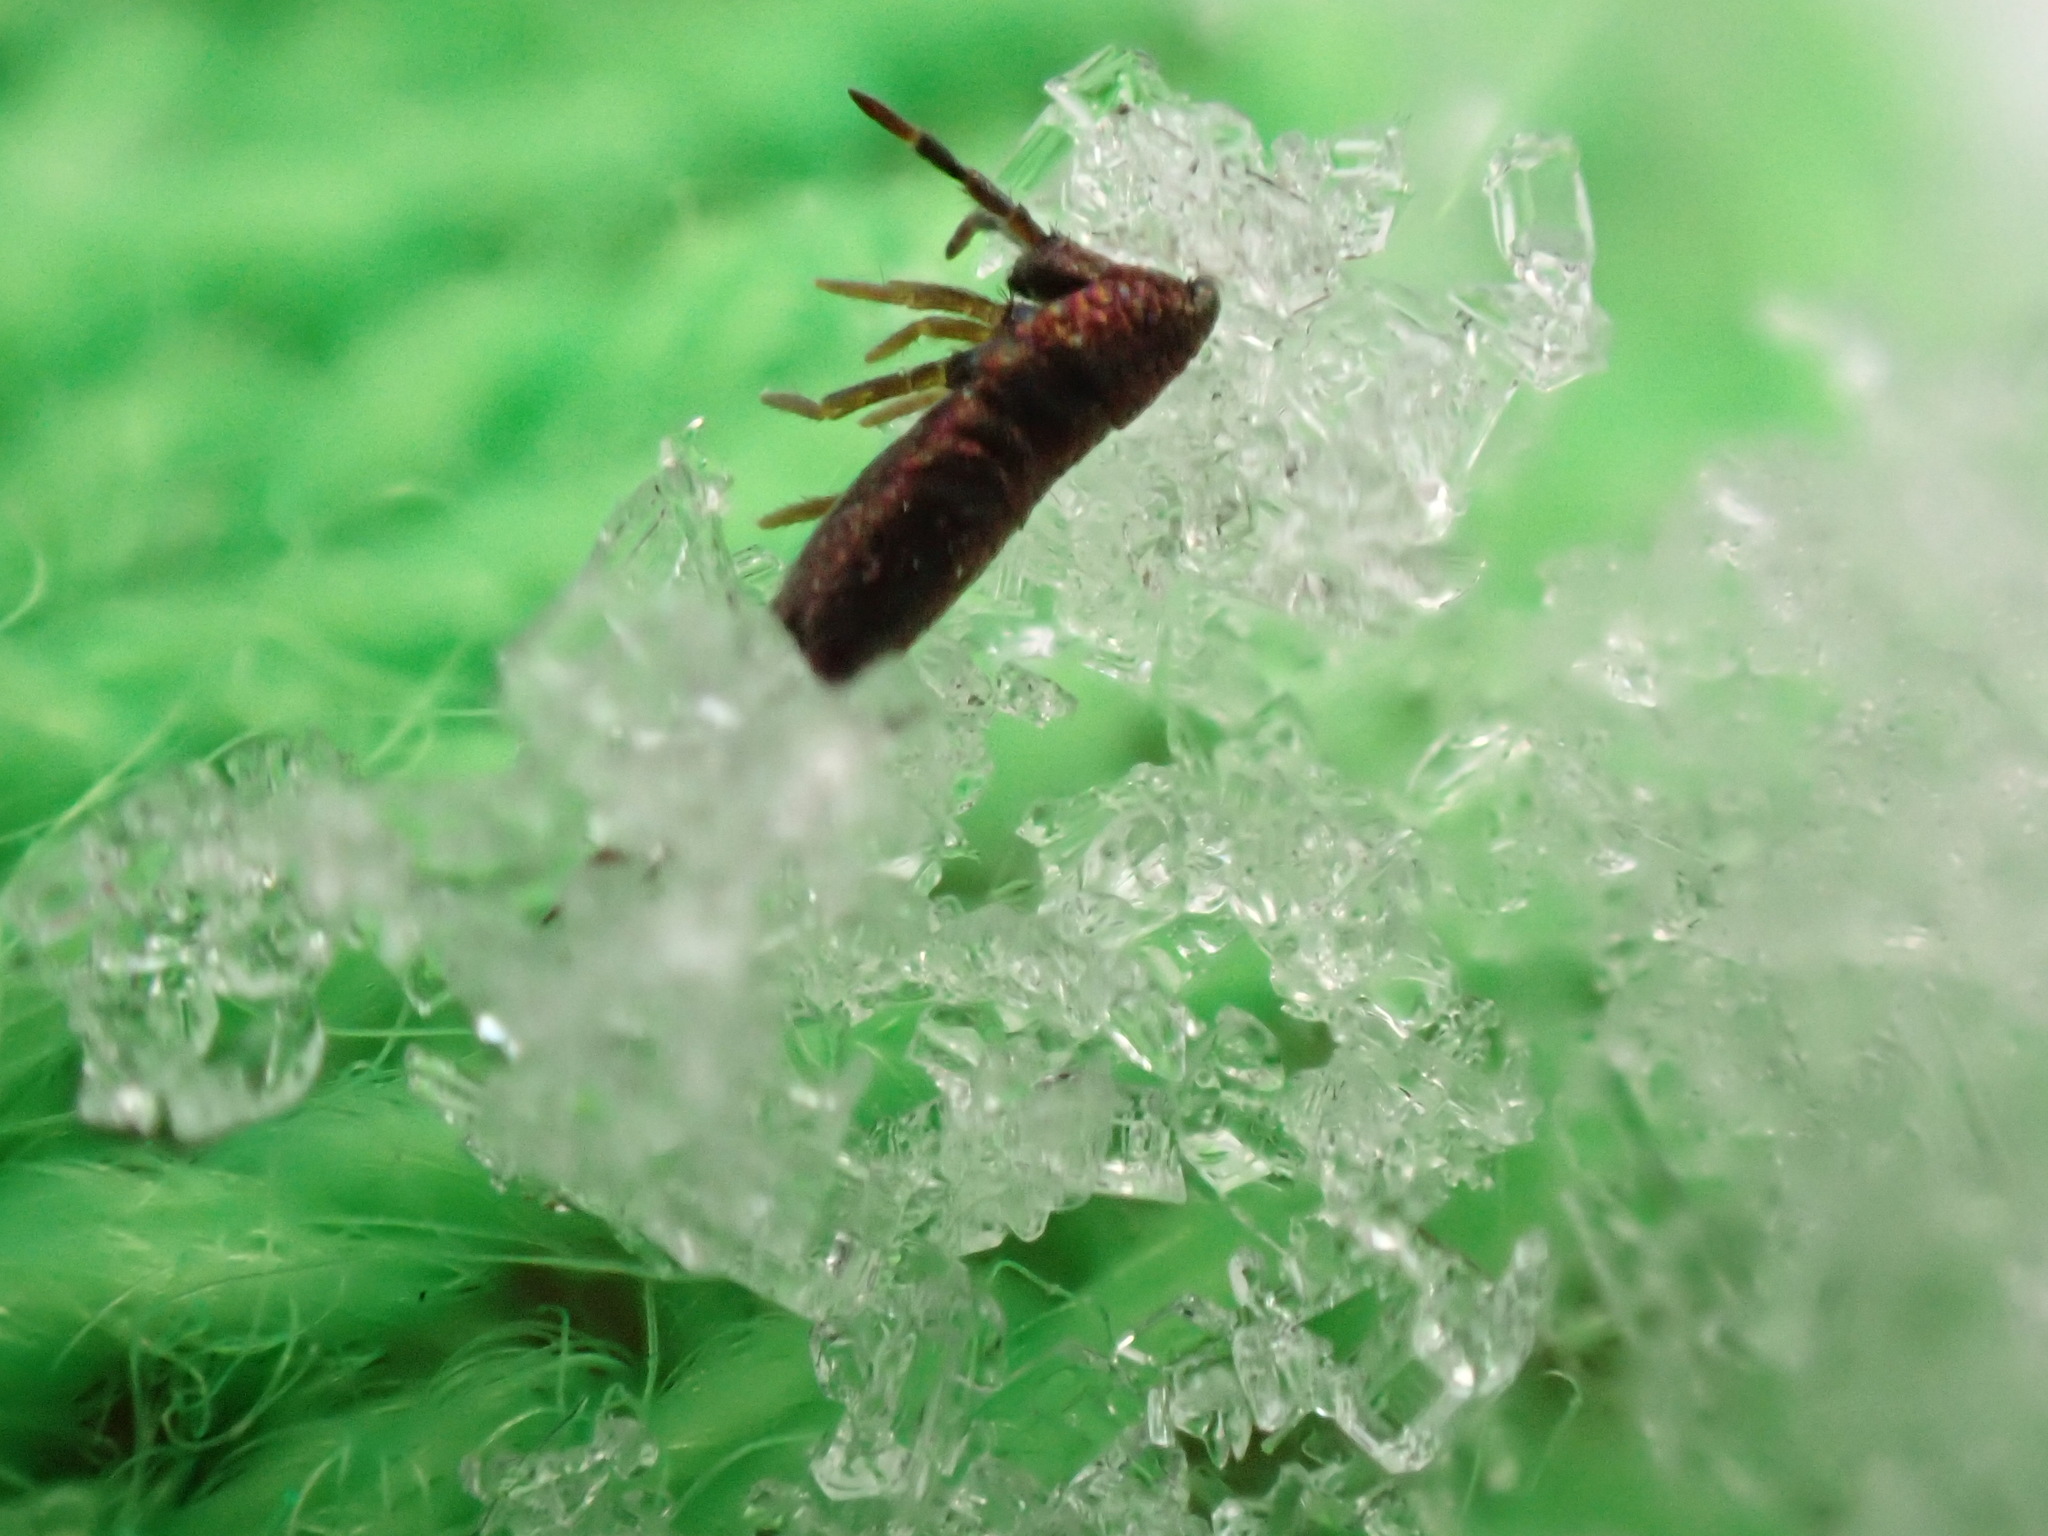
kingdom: Animalia
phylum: Arthropoda
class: Collembola
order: Entomobryomorpha
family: Entomobryidae
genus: Lepidocyrtus
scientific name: Lepidocyrtus paradoxus
